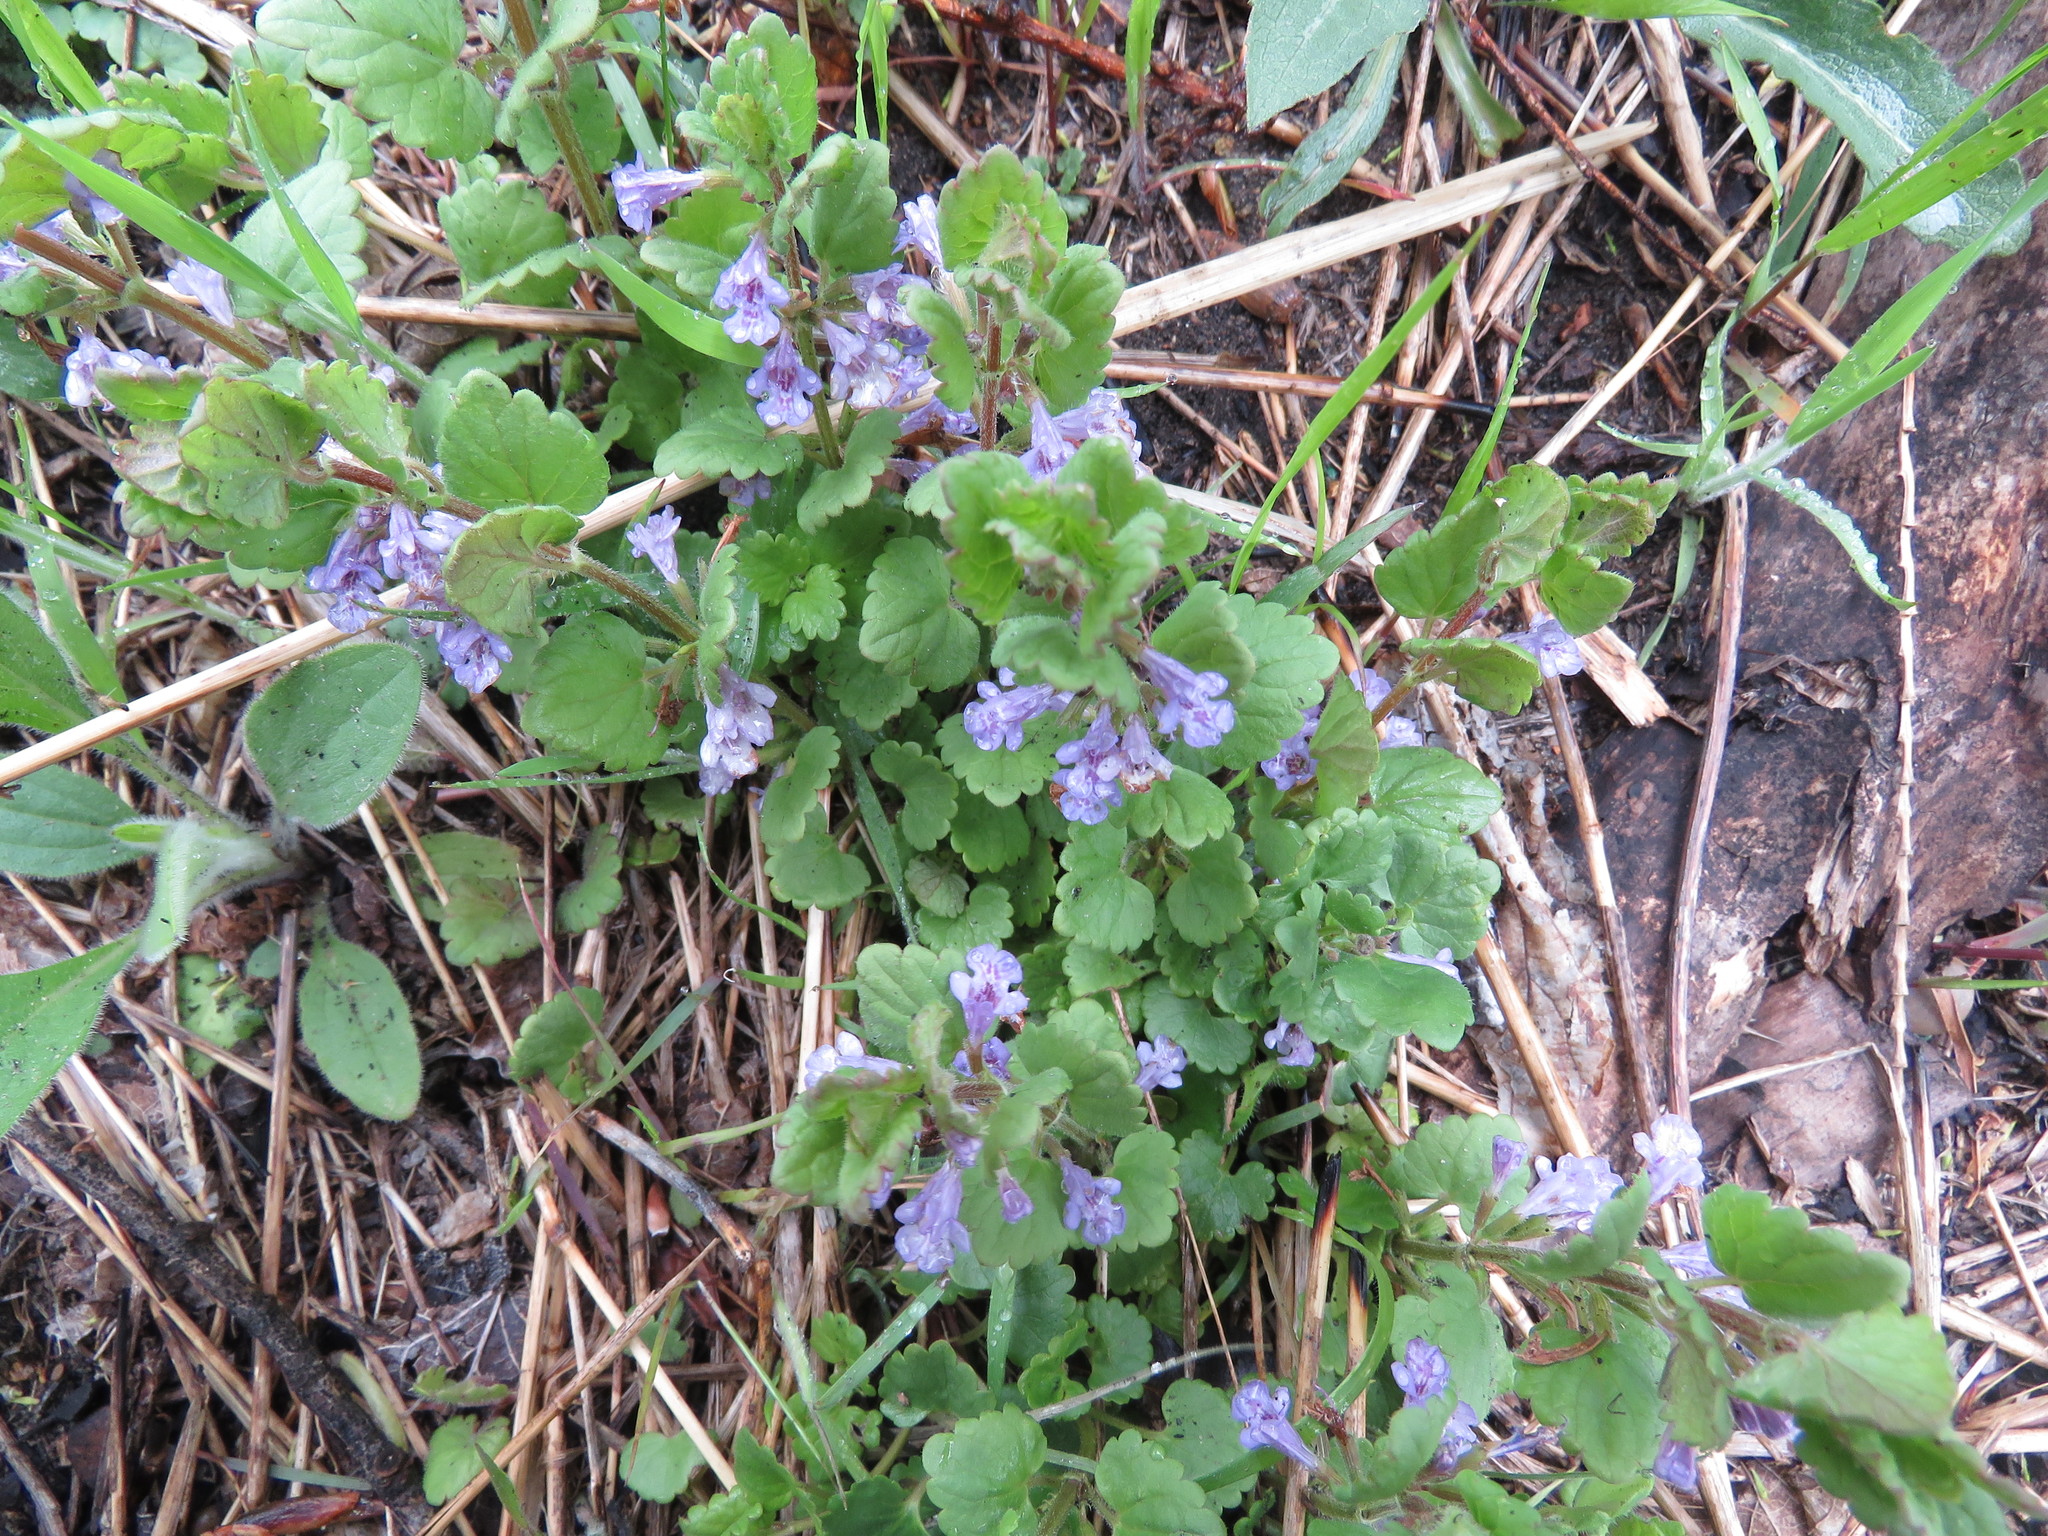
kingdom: Plantae
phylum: Tracheophyta
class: Magnoliopsida
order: Lamiales
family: Lamiaceae
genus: Glechoma
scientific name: Glechoma hederacea
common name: Ground ivy
